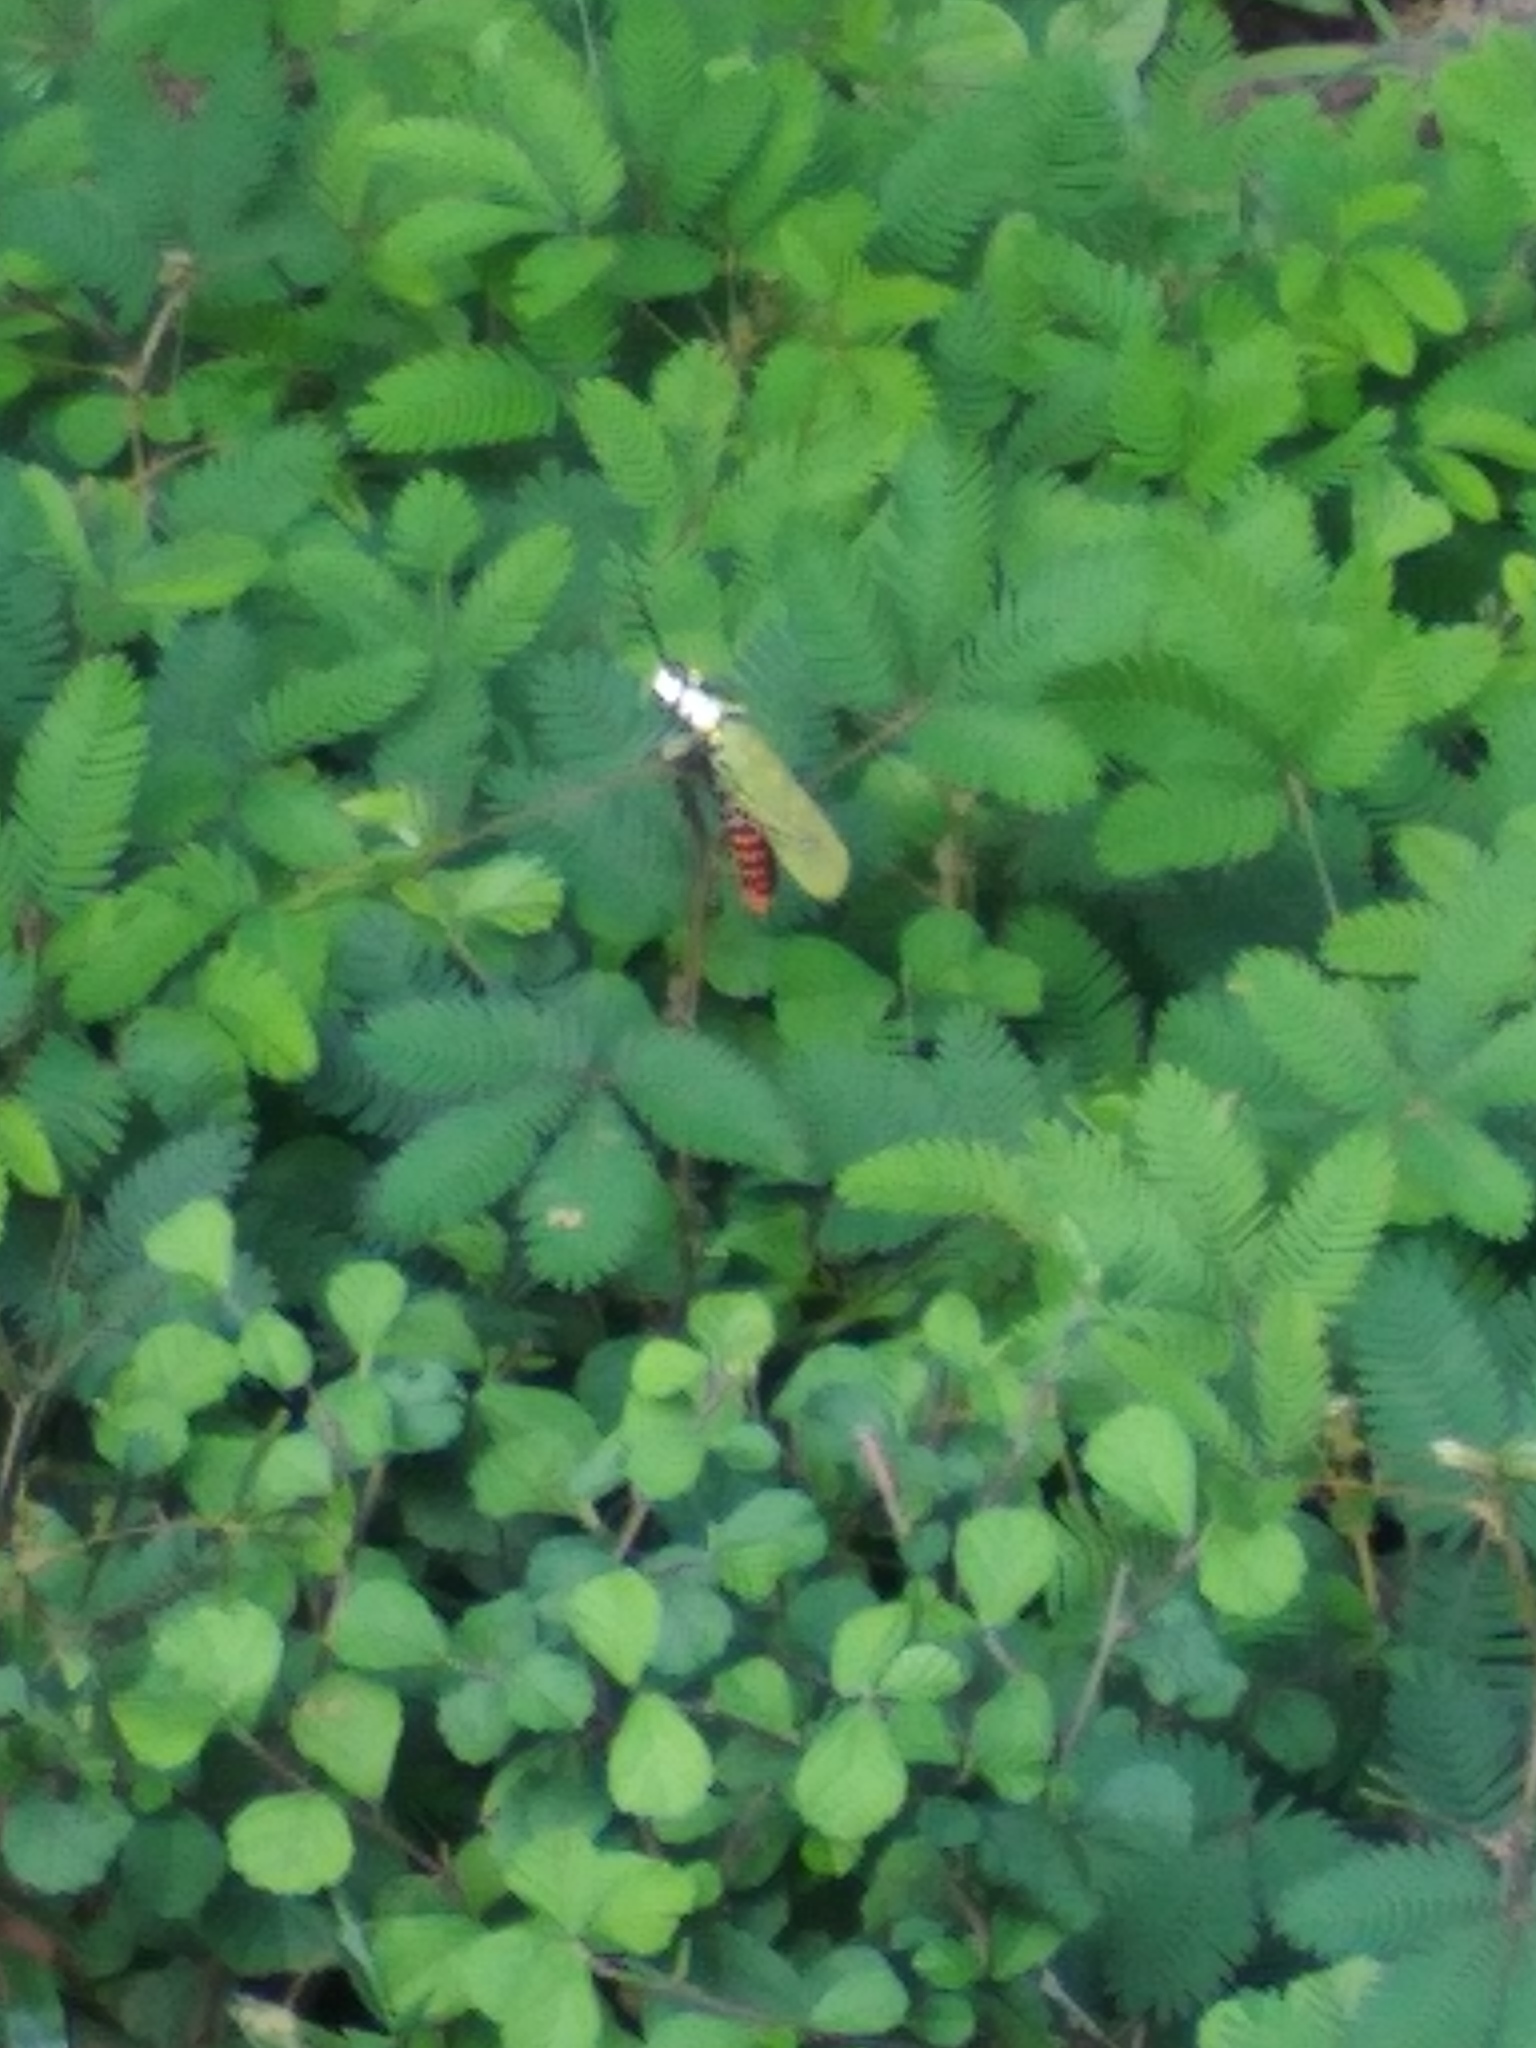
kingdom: Animalia
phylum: Arthropoda
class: Insecta
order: Orthoptera
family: Pyrgomorphidae
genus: Aularches
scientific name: Aularches miliaris
